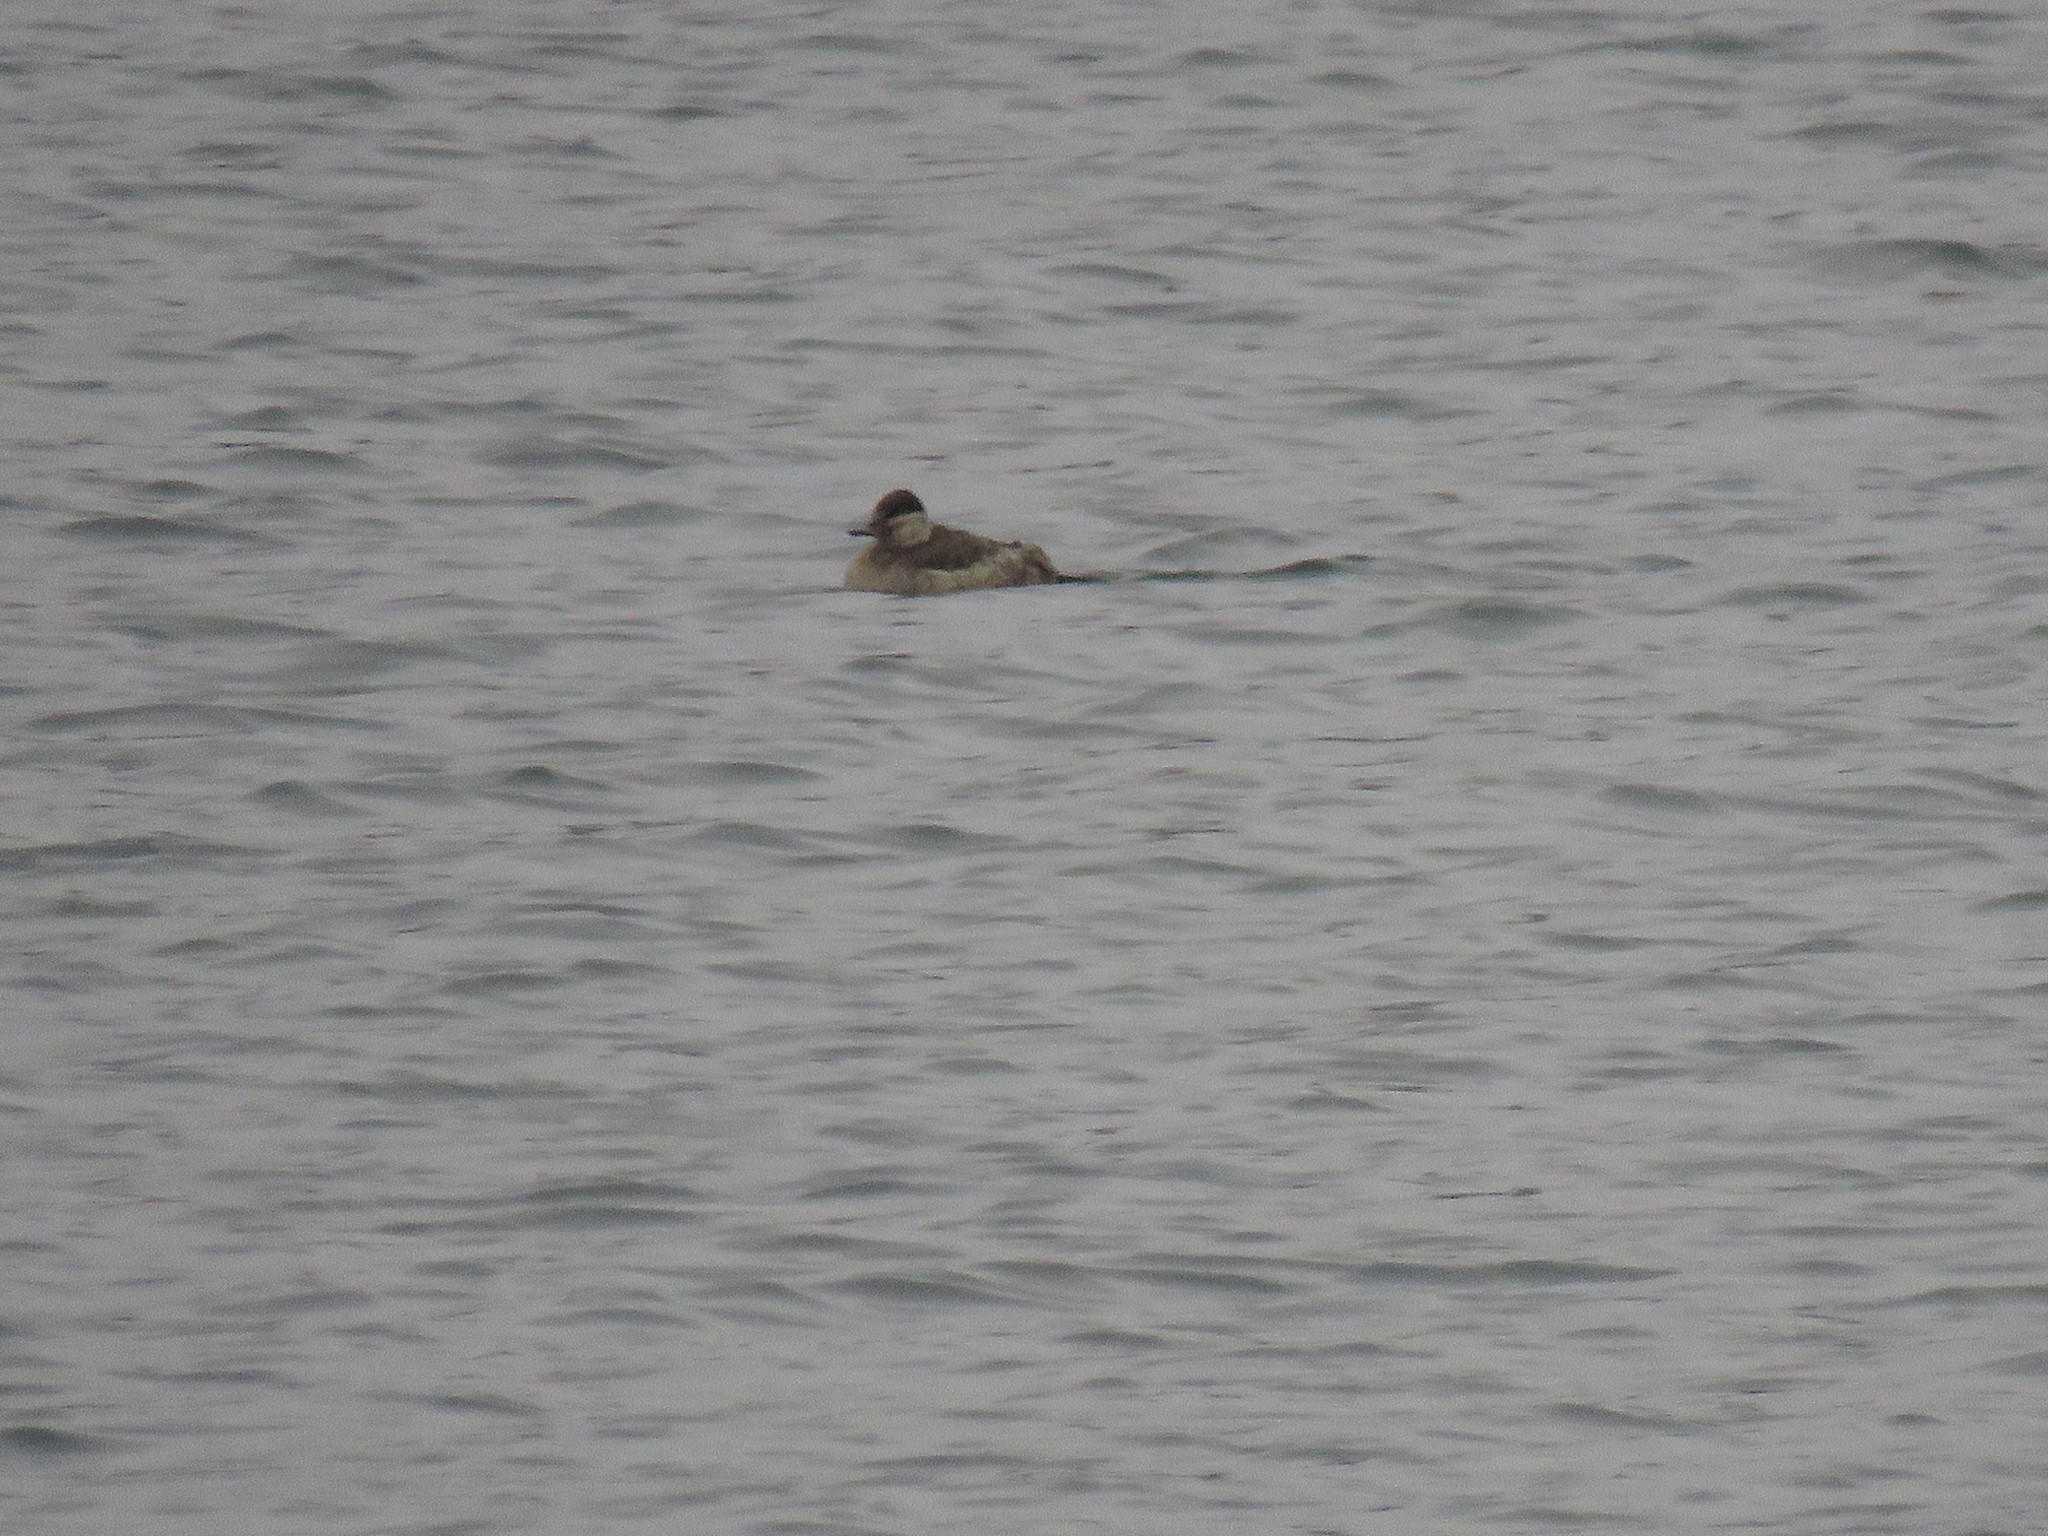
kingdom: Animalia
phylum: Chordata
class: Aves
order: Anseriformes
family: Anatidae
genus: Oxyura
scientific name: Oxyura jamaicensis
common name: Ruddy duck
